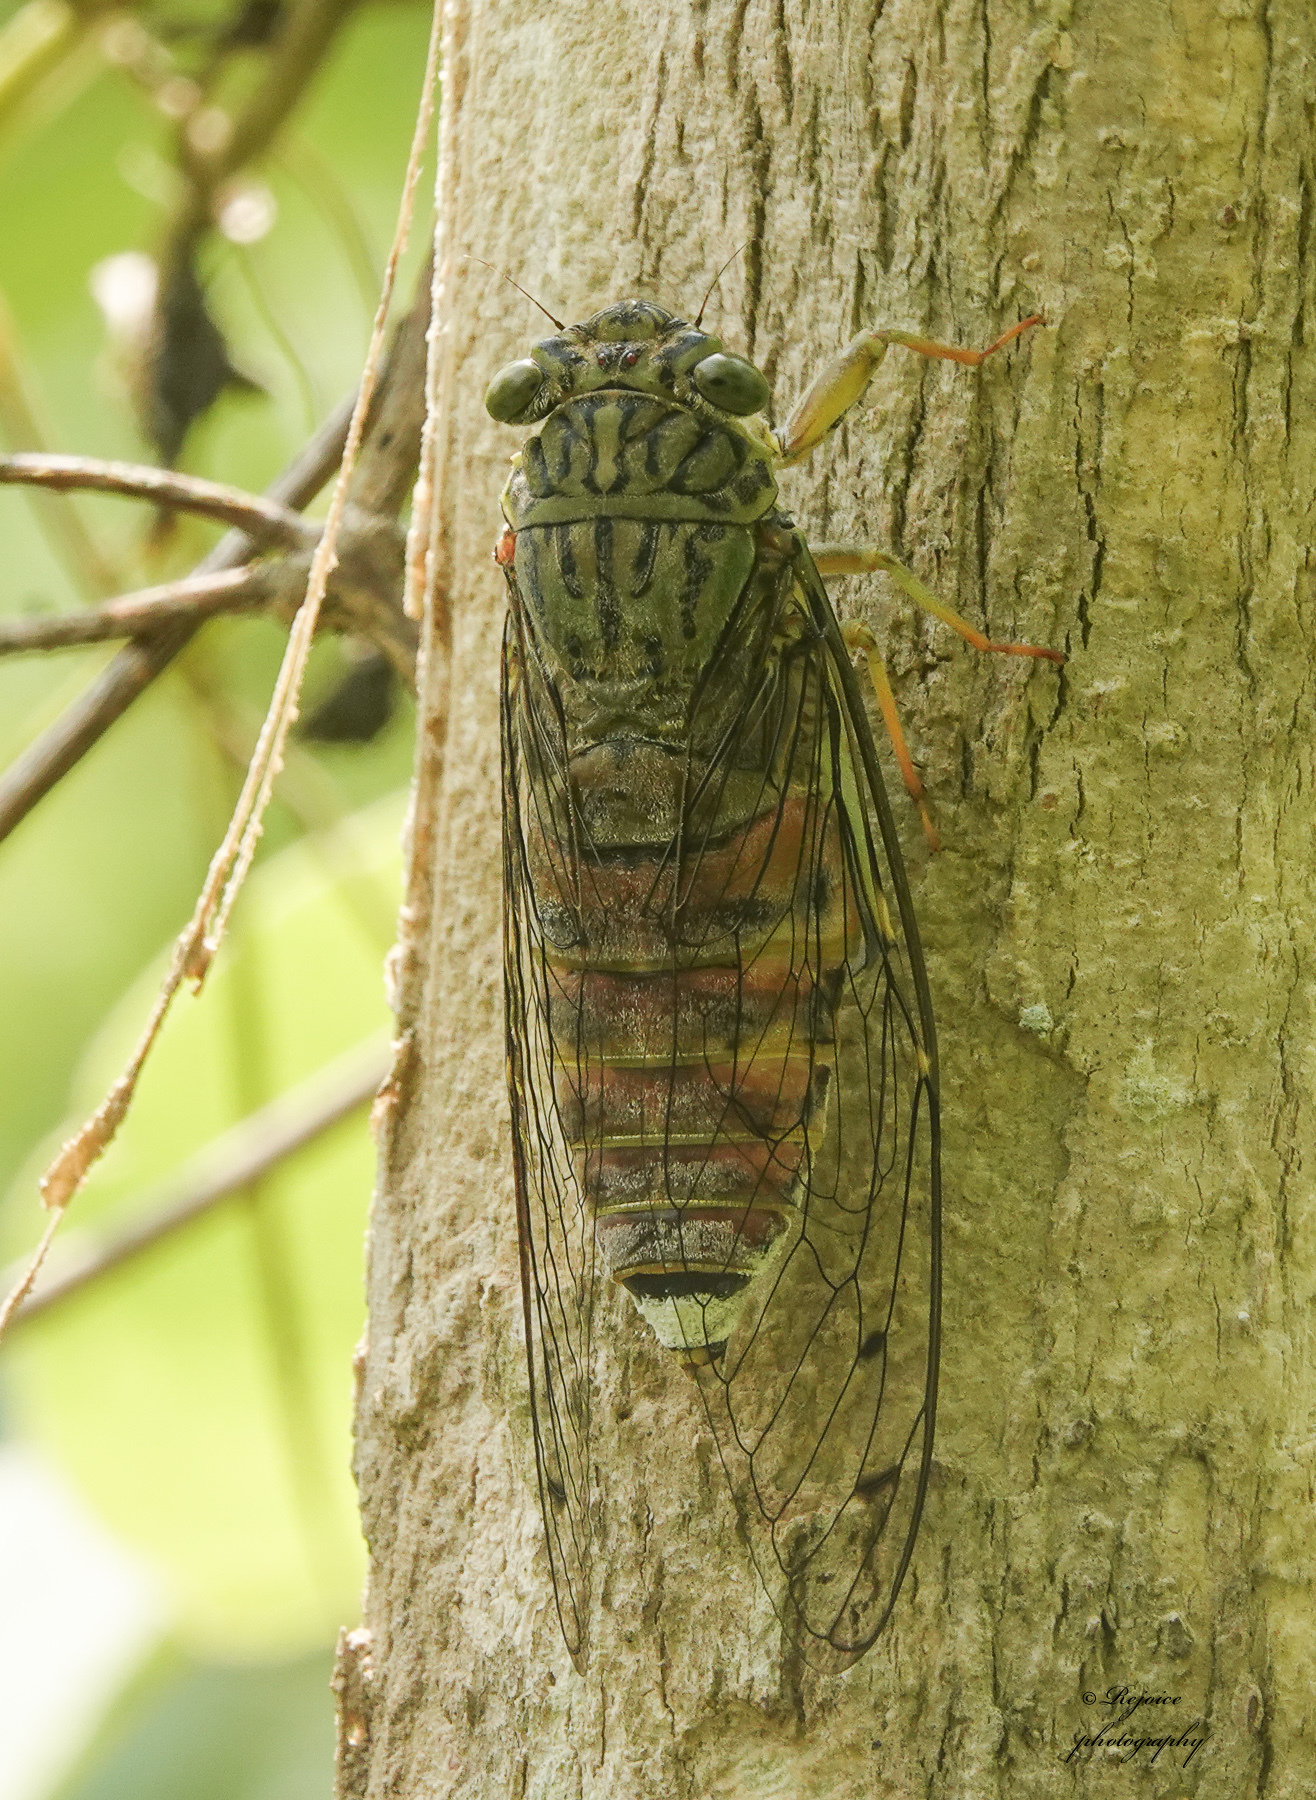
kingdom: Animalia
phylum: Arthropoda
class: Insecta
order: Hemiptera
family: Cicadidae
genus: Orientopsaltria
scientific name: Orientopsaltria fangrayae
